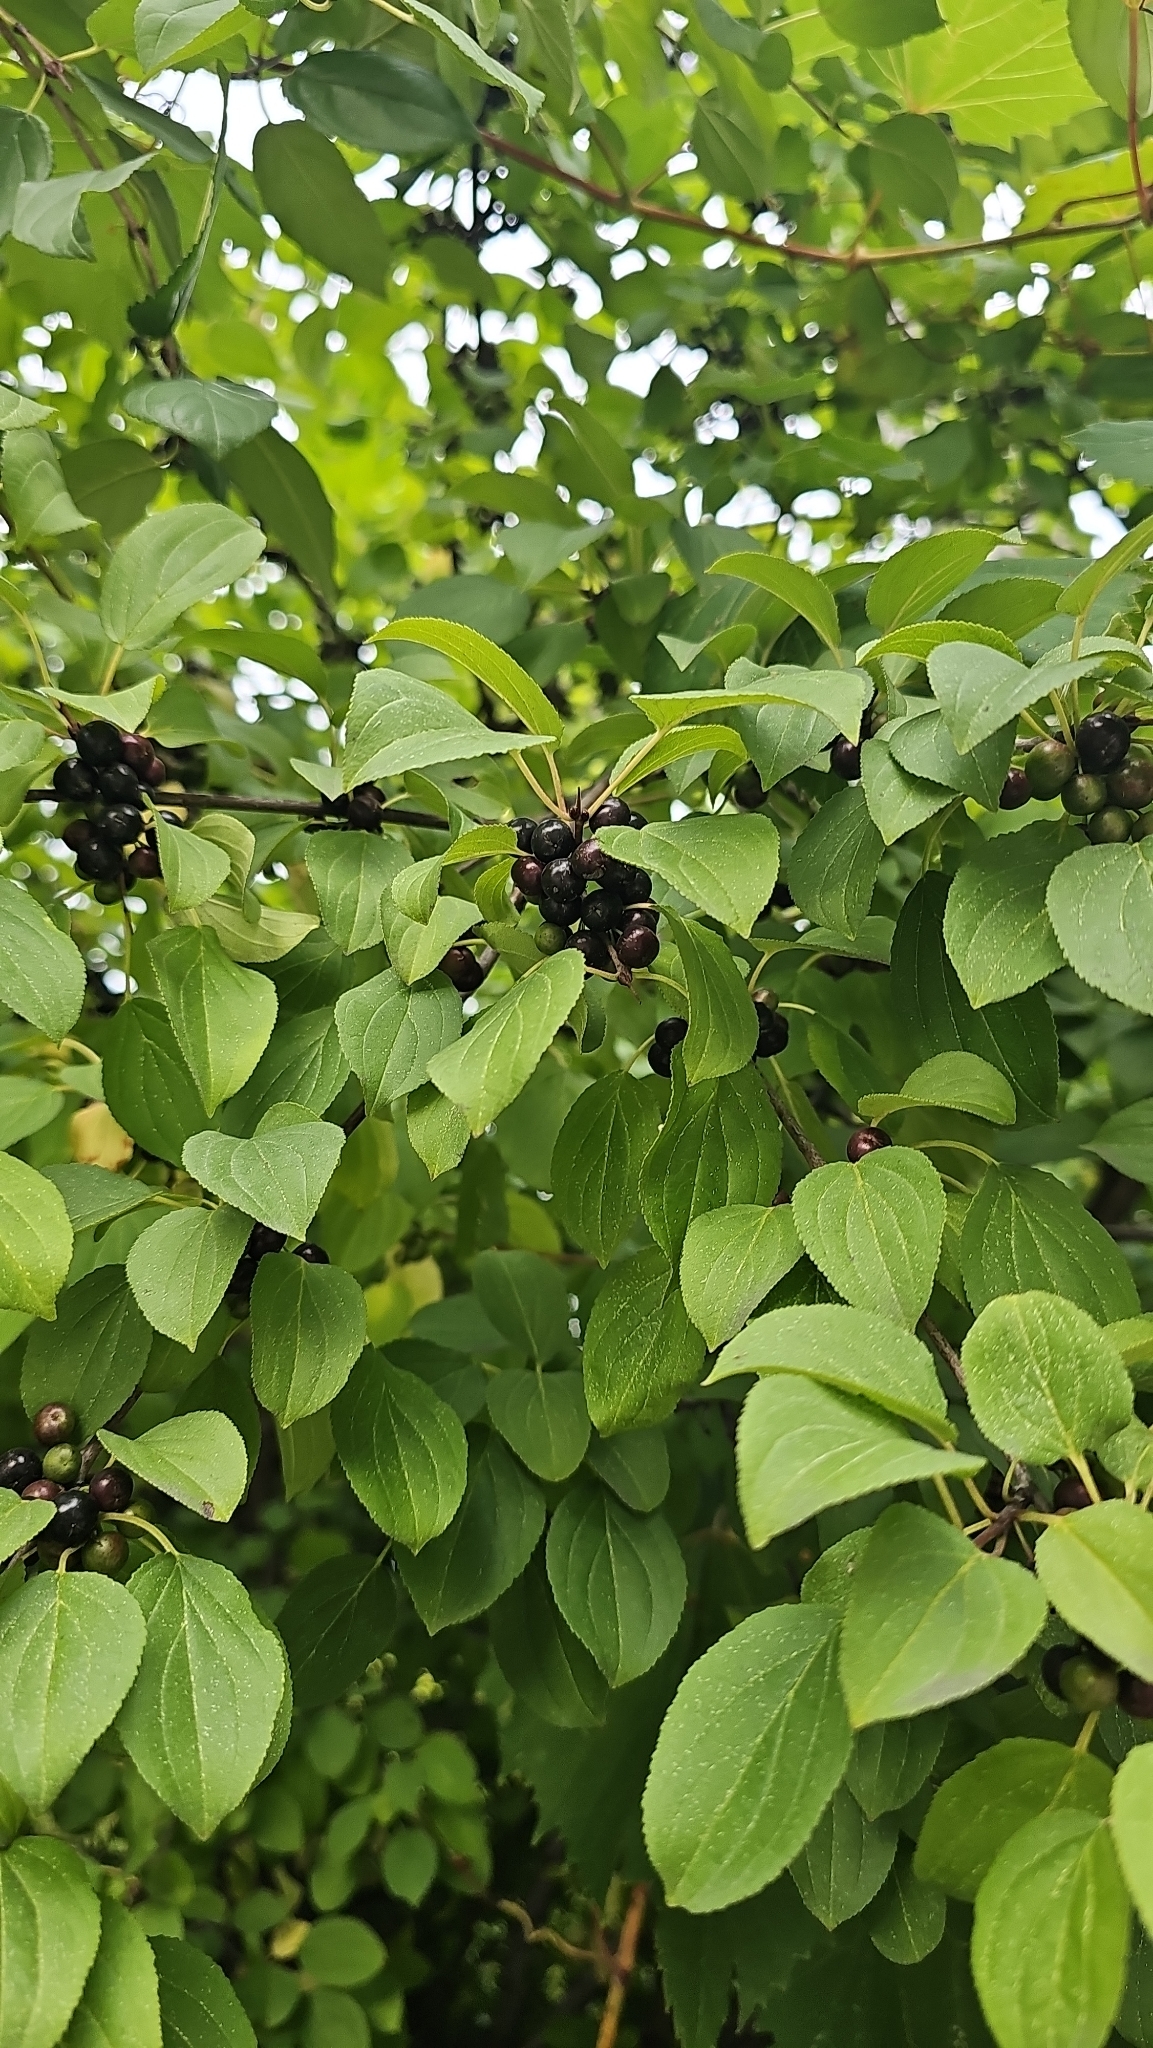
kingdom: Plantae
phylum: Tracheophyta
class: Magnoliopsida
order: Rosales
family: Rhamnaceae
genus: Rhamnus
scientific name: Rhamnus cathartica
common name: Common buckthorn
